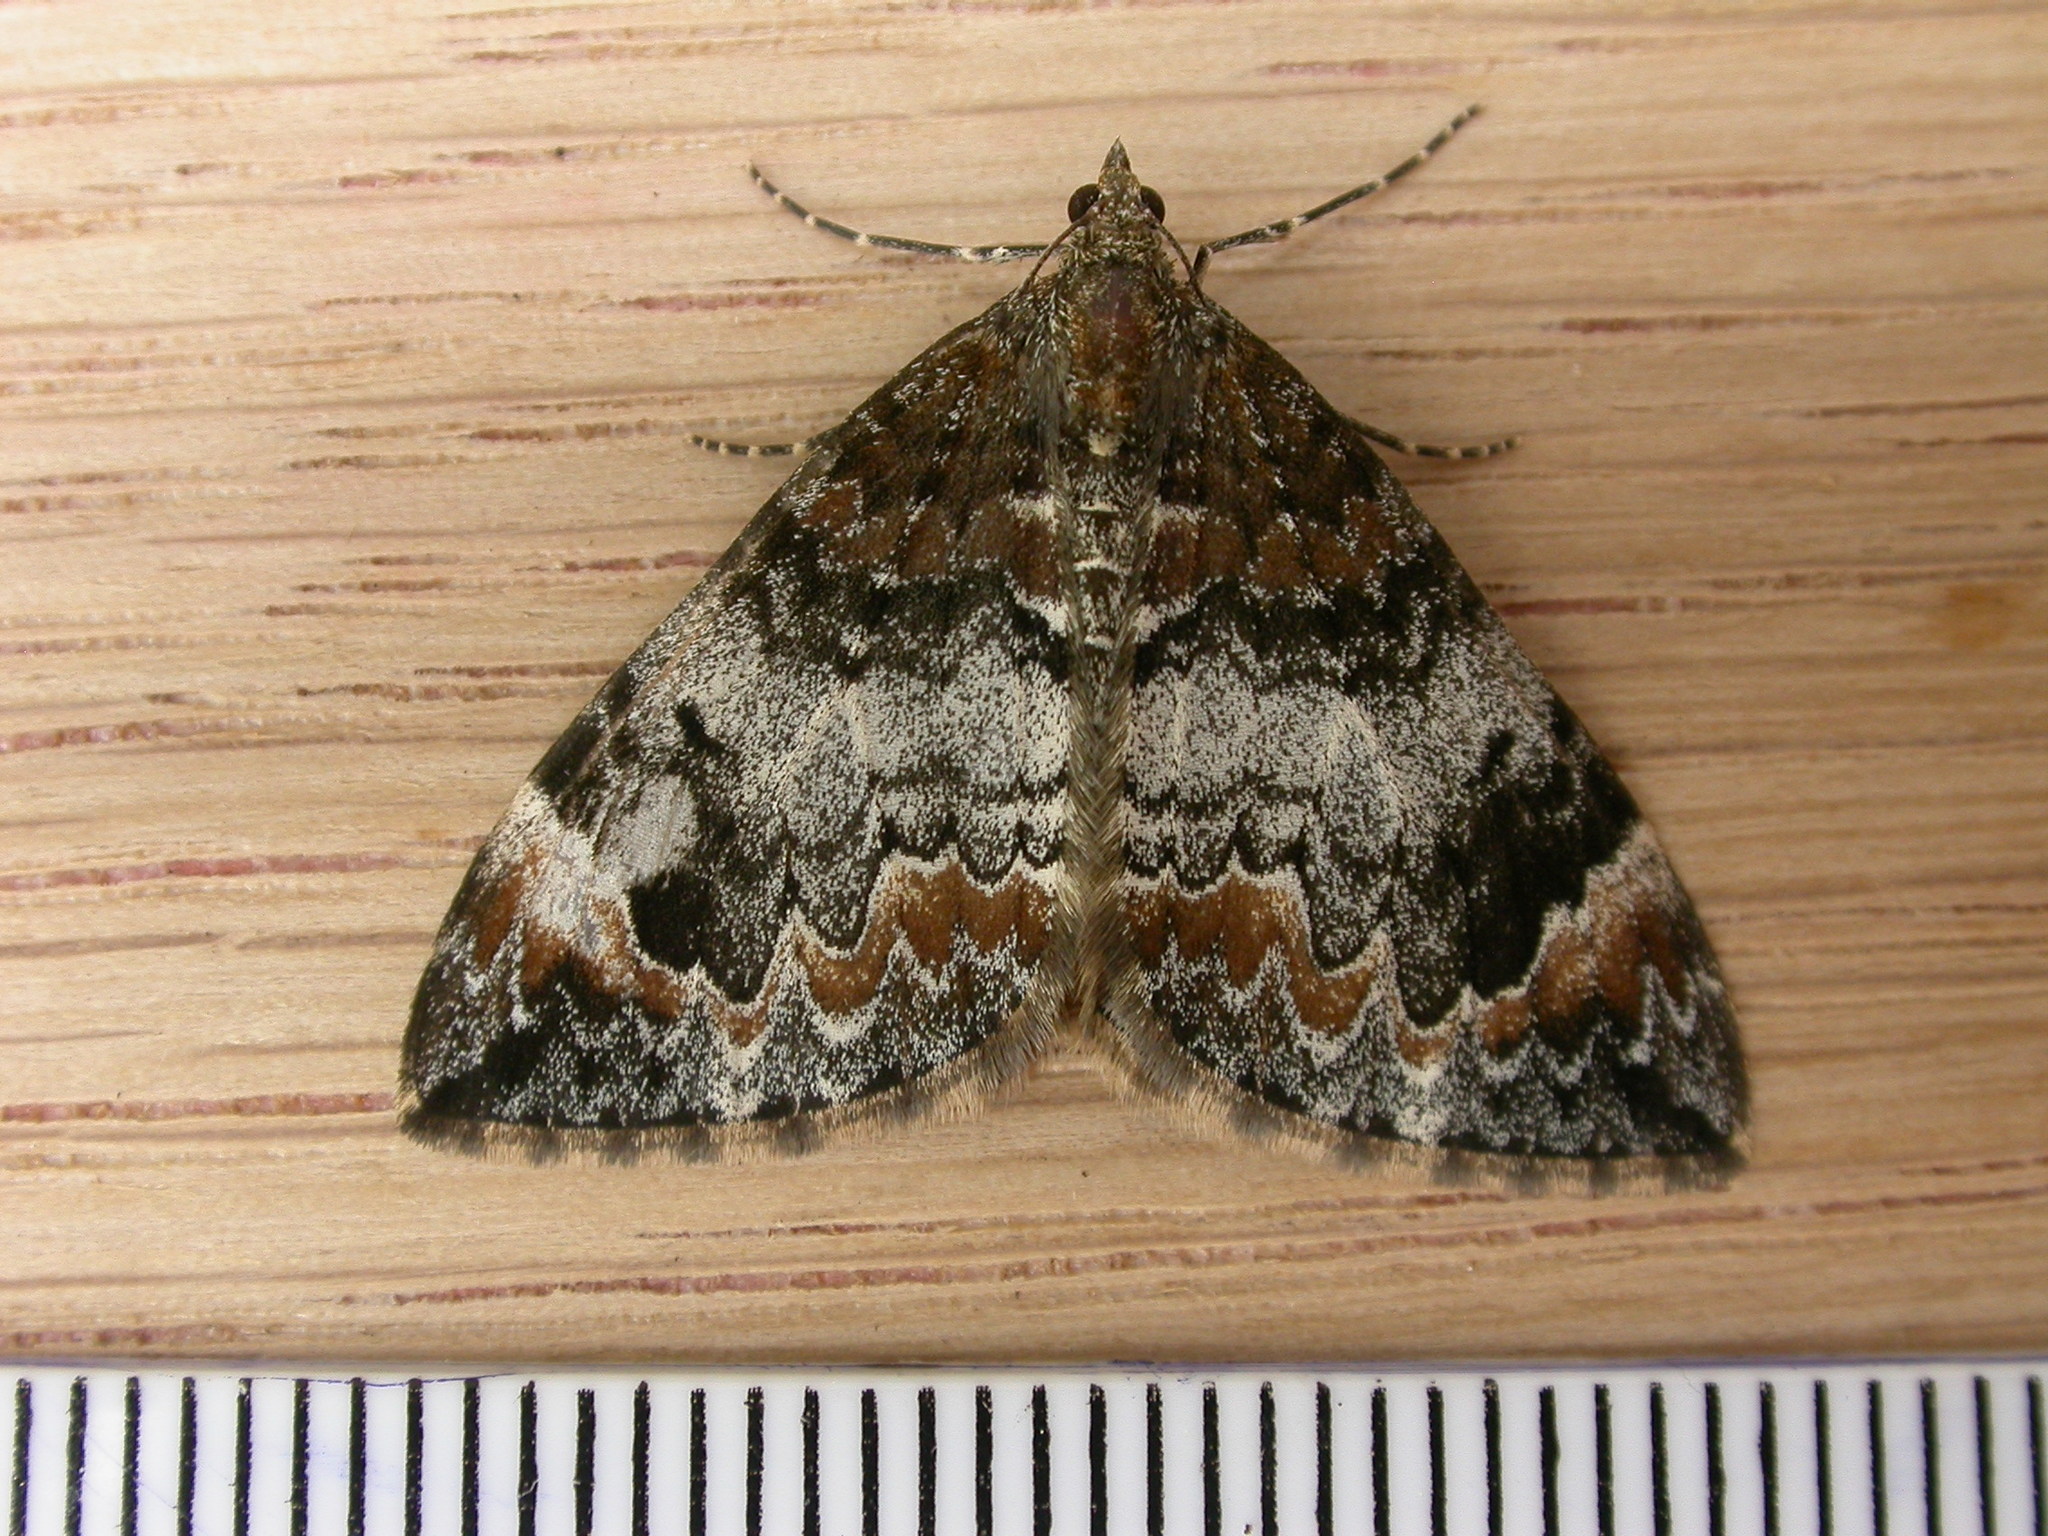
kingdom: Animalia
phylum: Arthropoda
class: Insecta
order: Lepidoptera
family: Geometridae
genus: Dysstroma
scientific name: Dysstroma truncata
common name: Common marbled carpet
